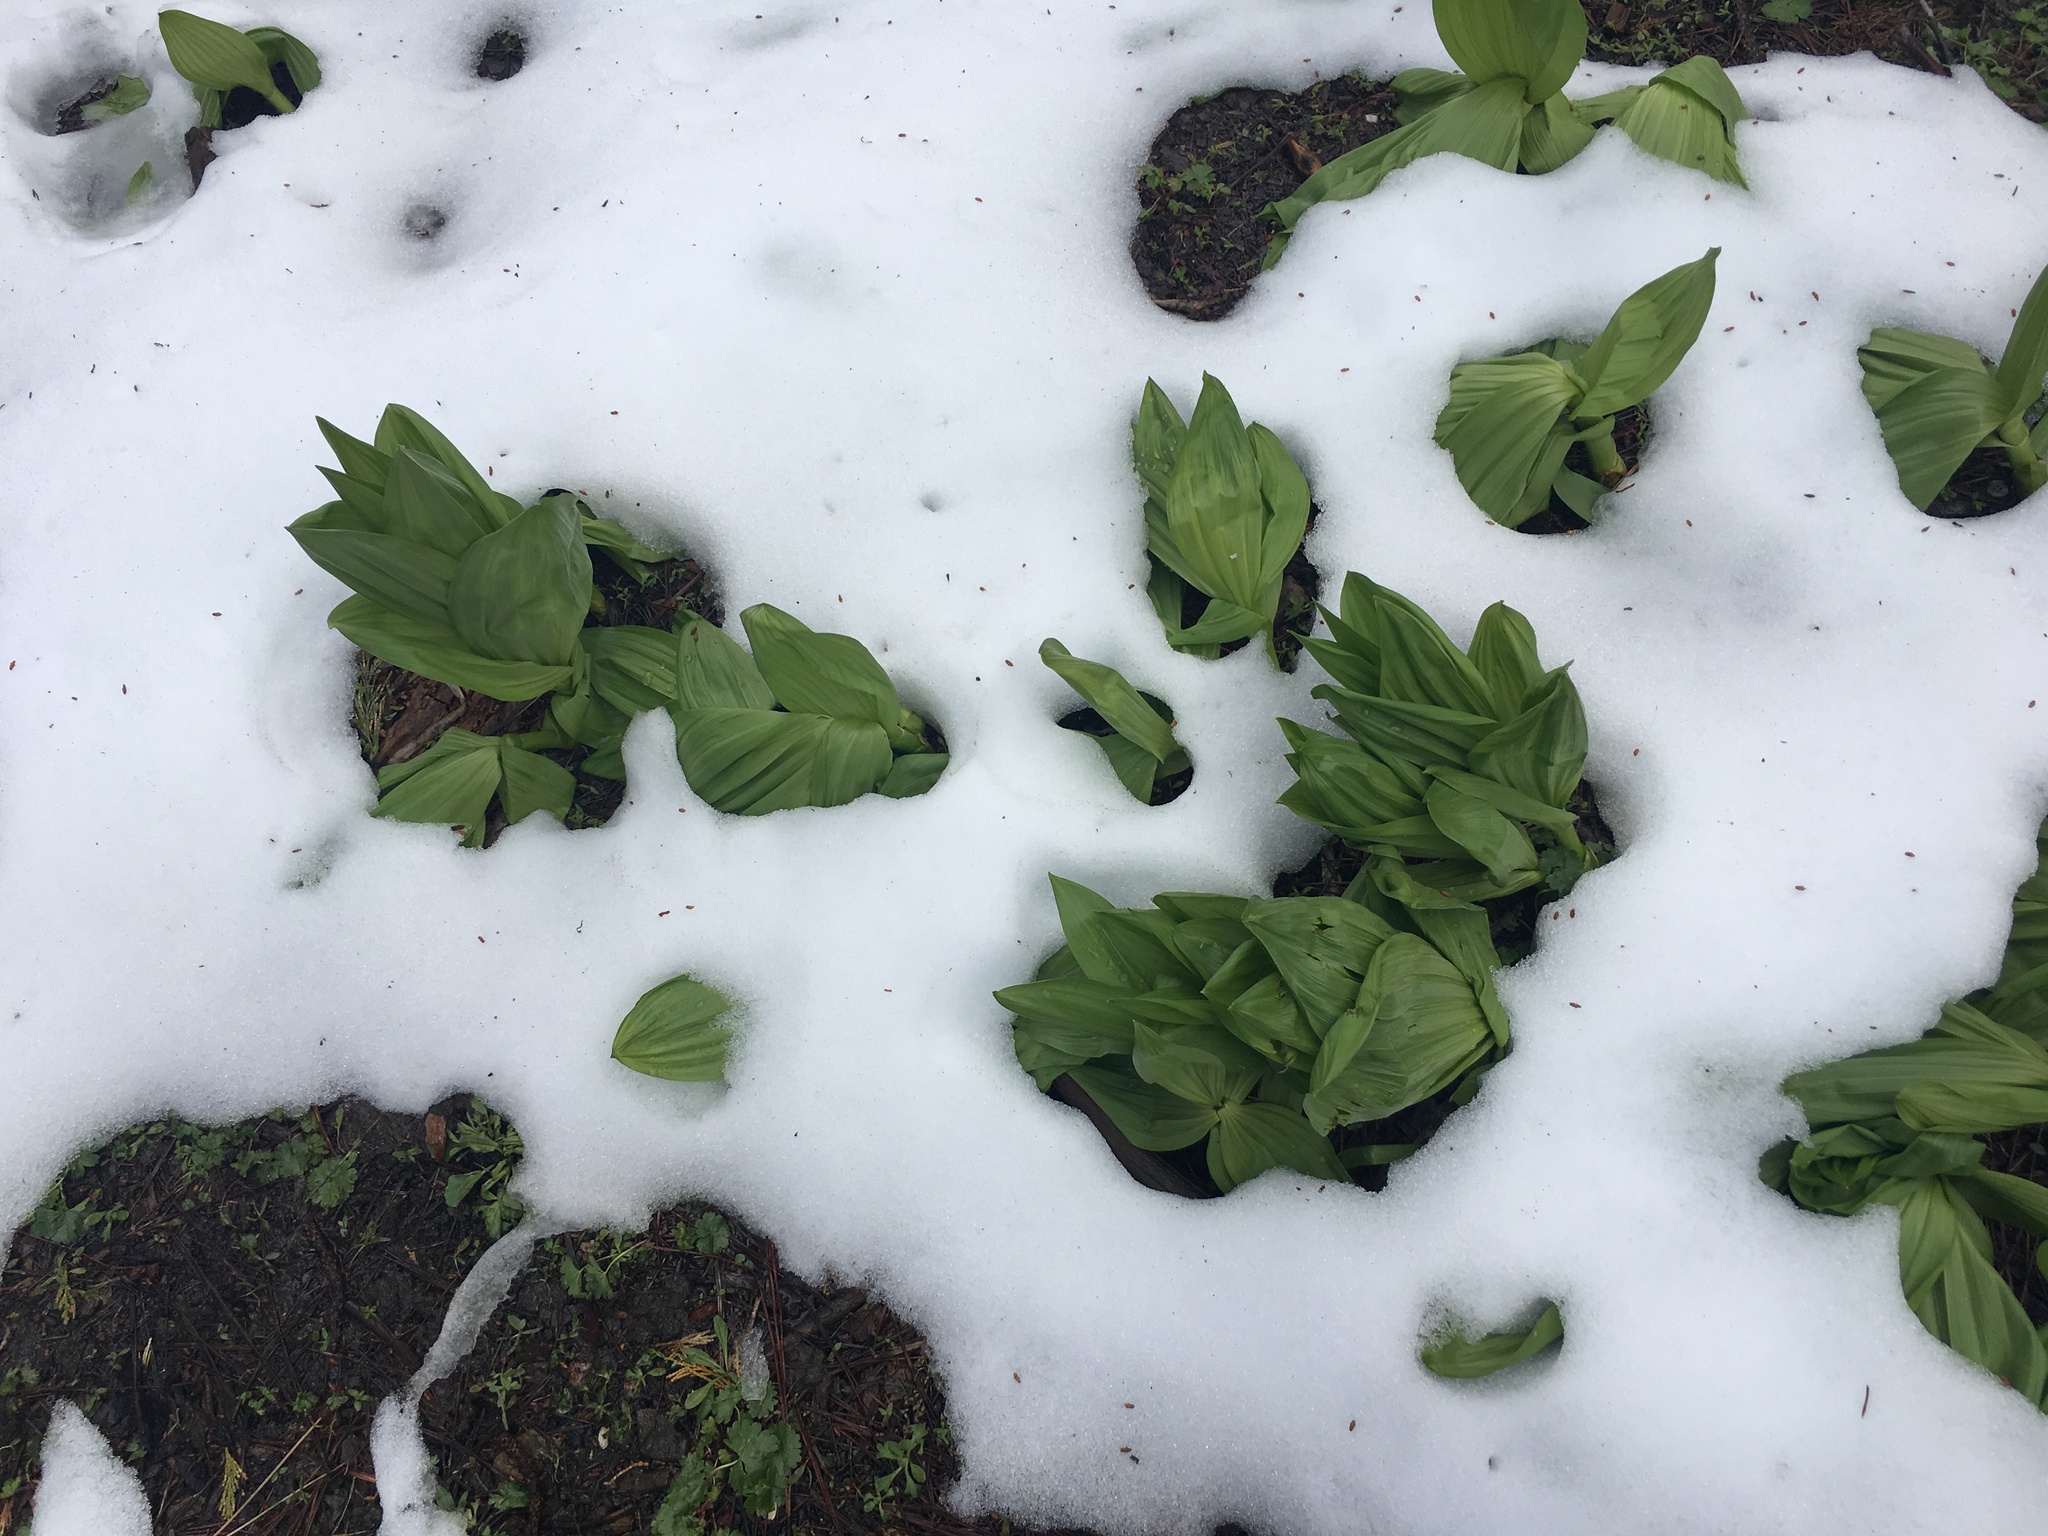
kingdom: Plantae
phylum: Tracheophyta
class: Liliopsida
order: Liliales
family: Melanthiaceae
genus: Veratrum
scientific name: Veratrum californicum
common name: California veratrum
